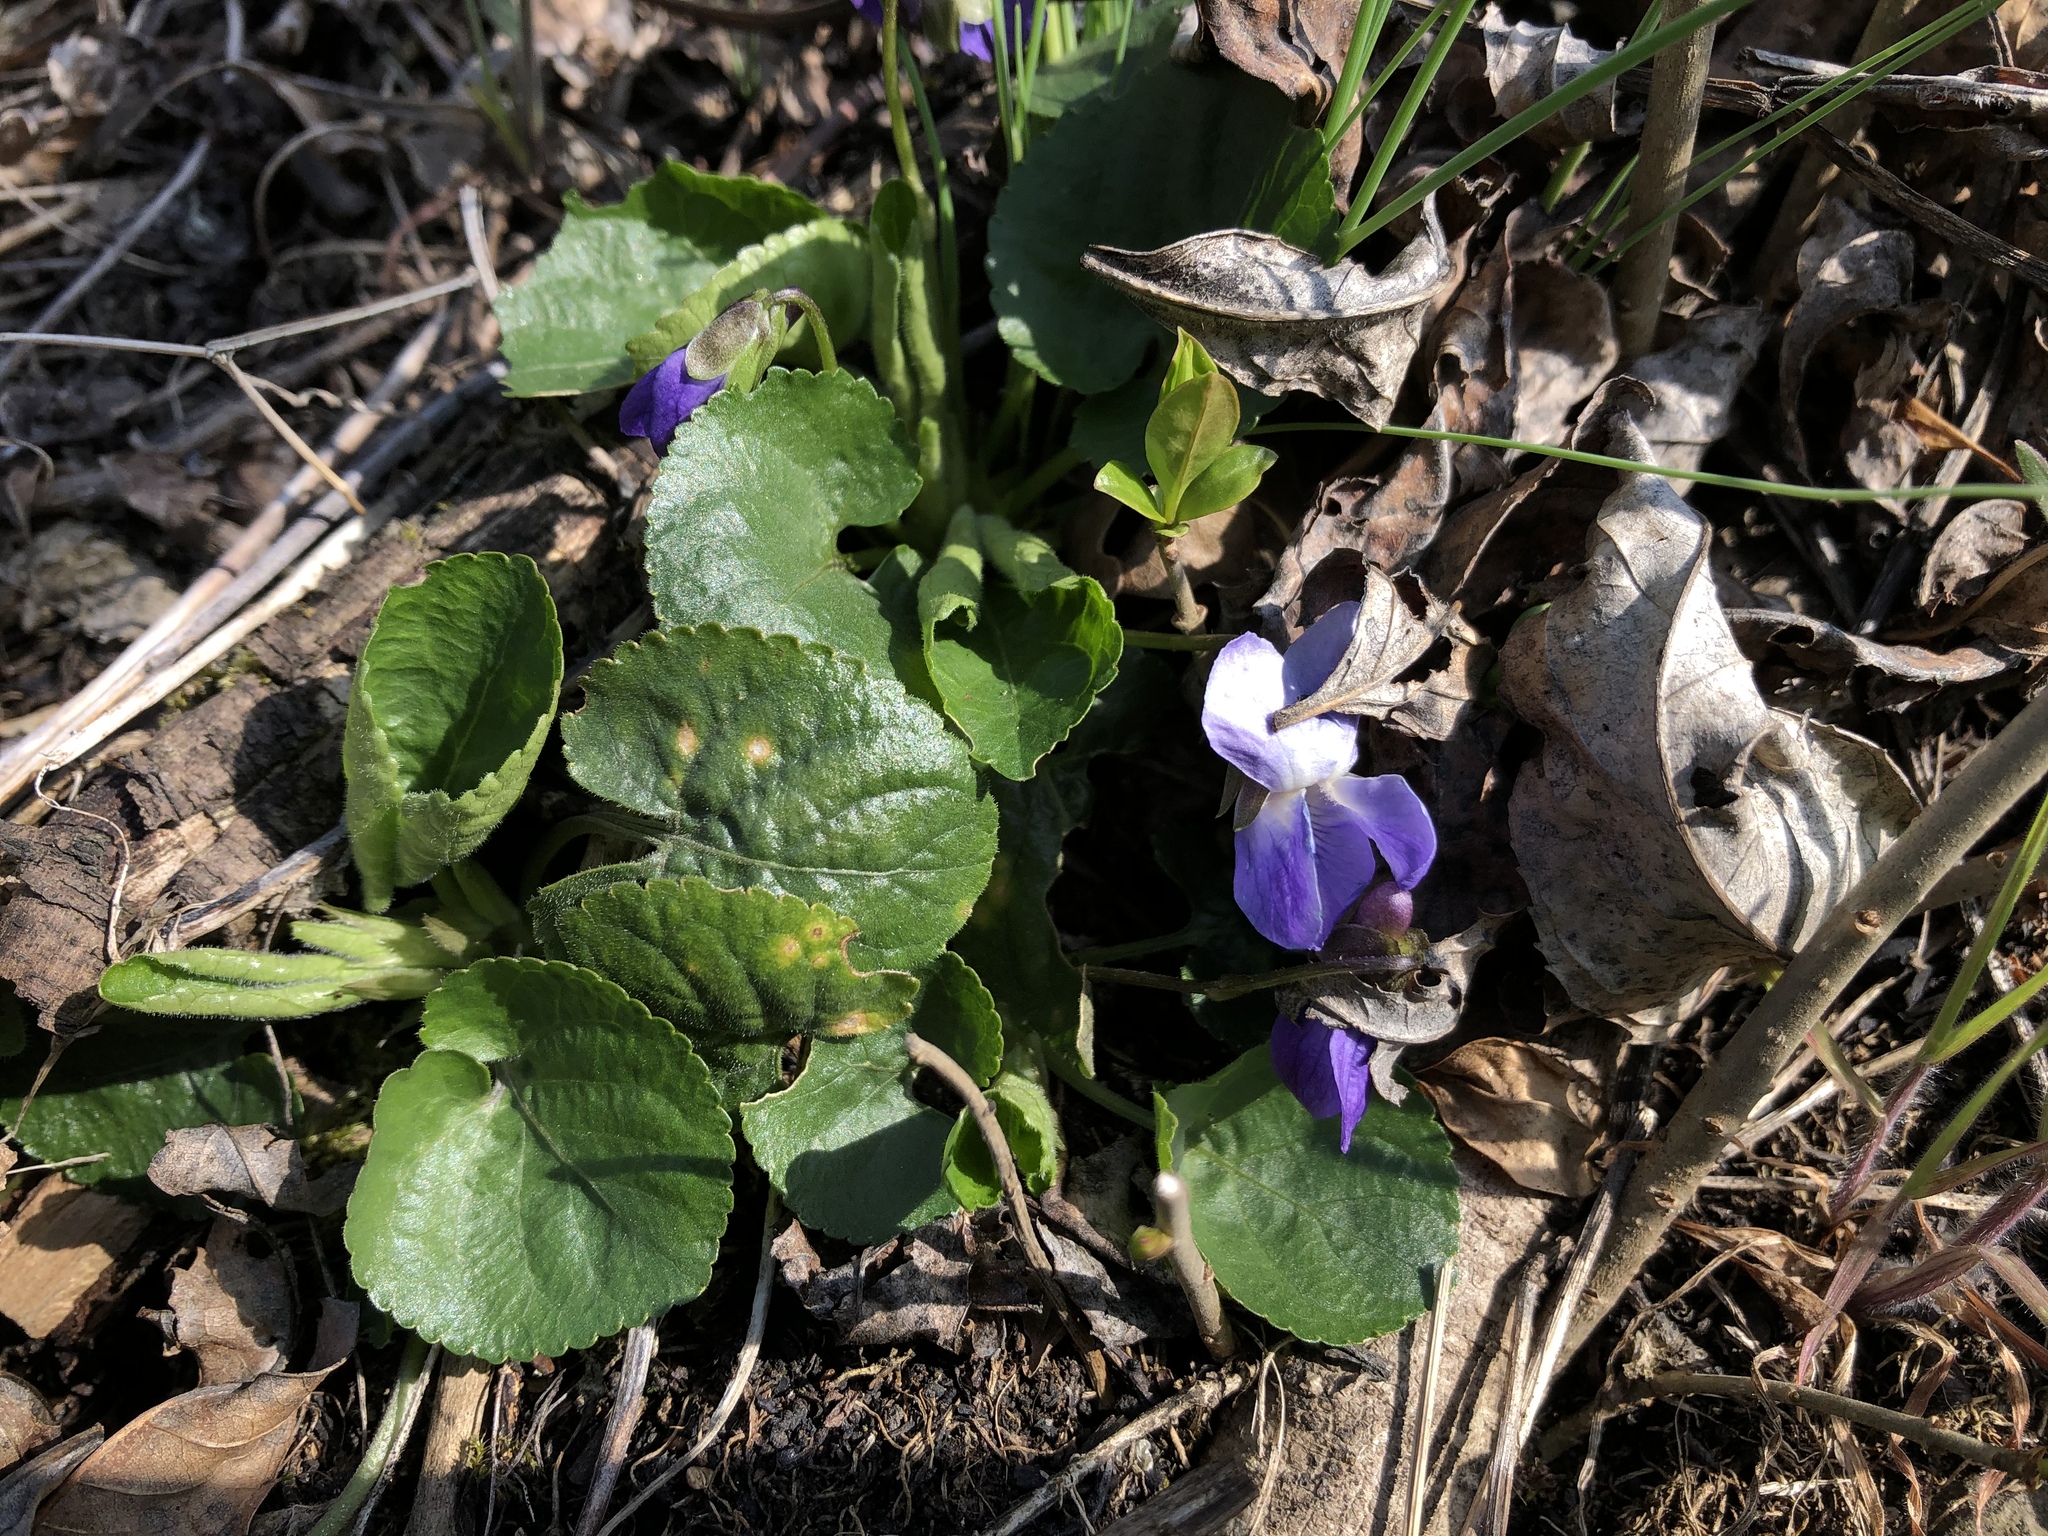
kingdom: Plantae
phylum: Tracheophyta
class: Magnoliopsida
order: Malpighiales
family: Violaceae
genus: Viola
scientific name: Viola odorata
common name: Sweet violet
